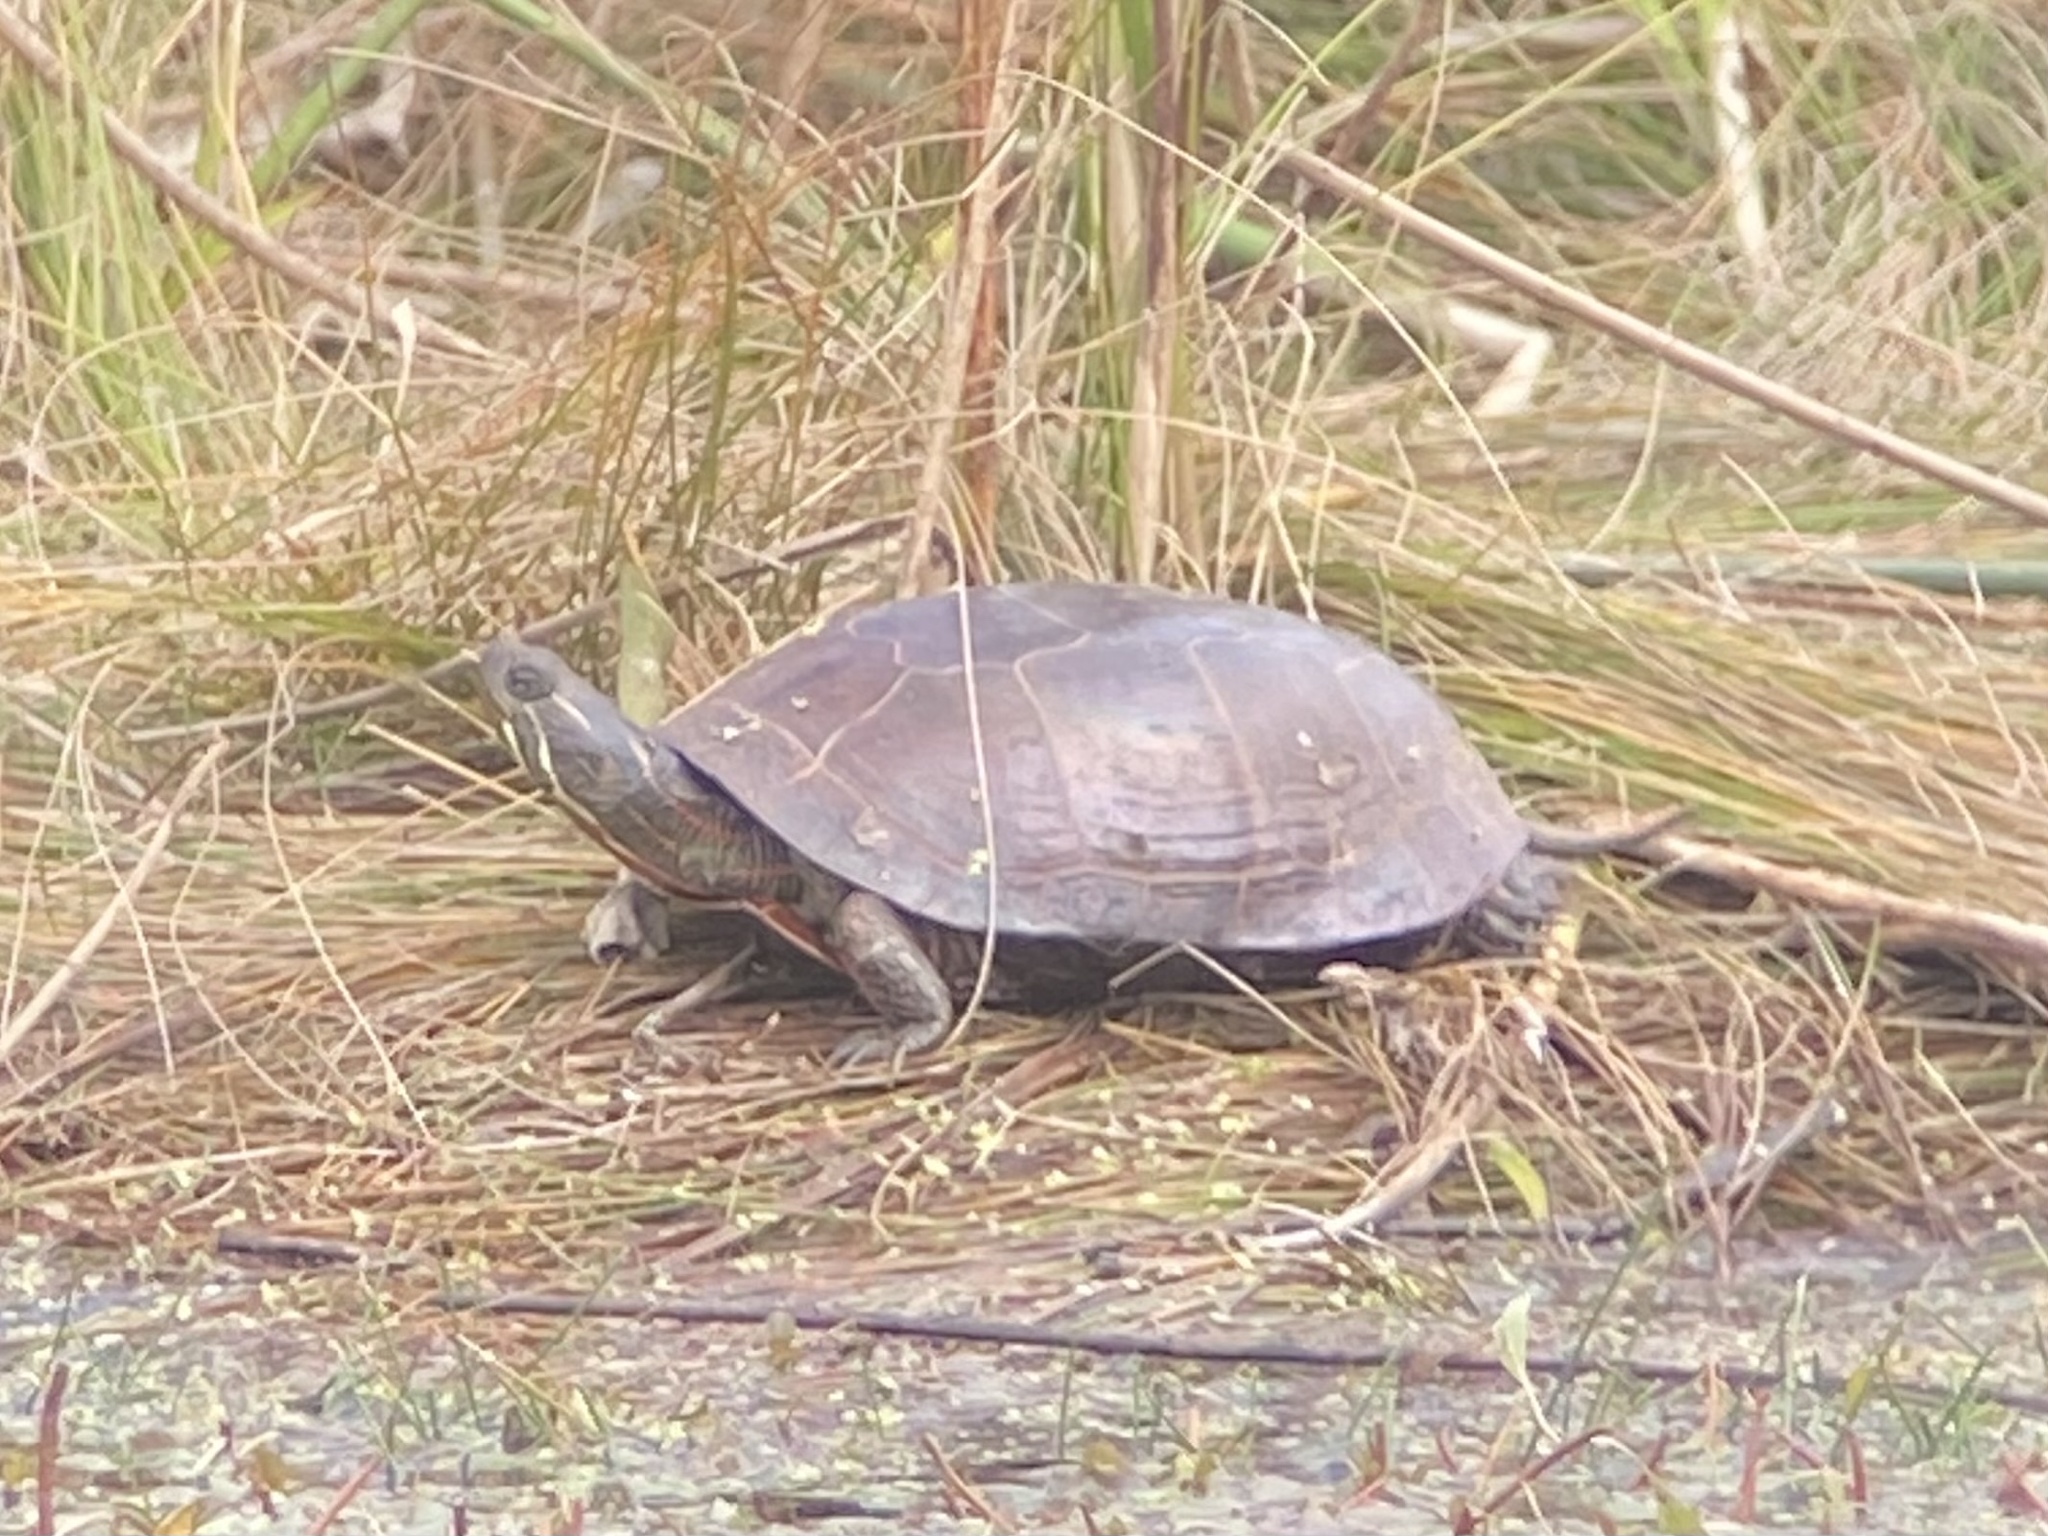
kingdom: Animalia
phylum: Chordata
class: Testudines
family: Emydidae
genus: Chrysemys
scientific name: Chrysemys picta
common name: Painted turtle
